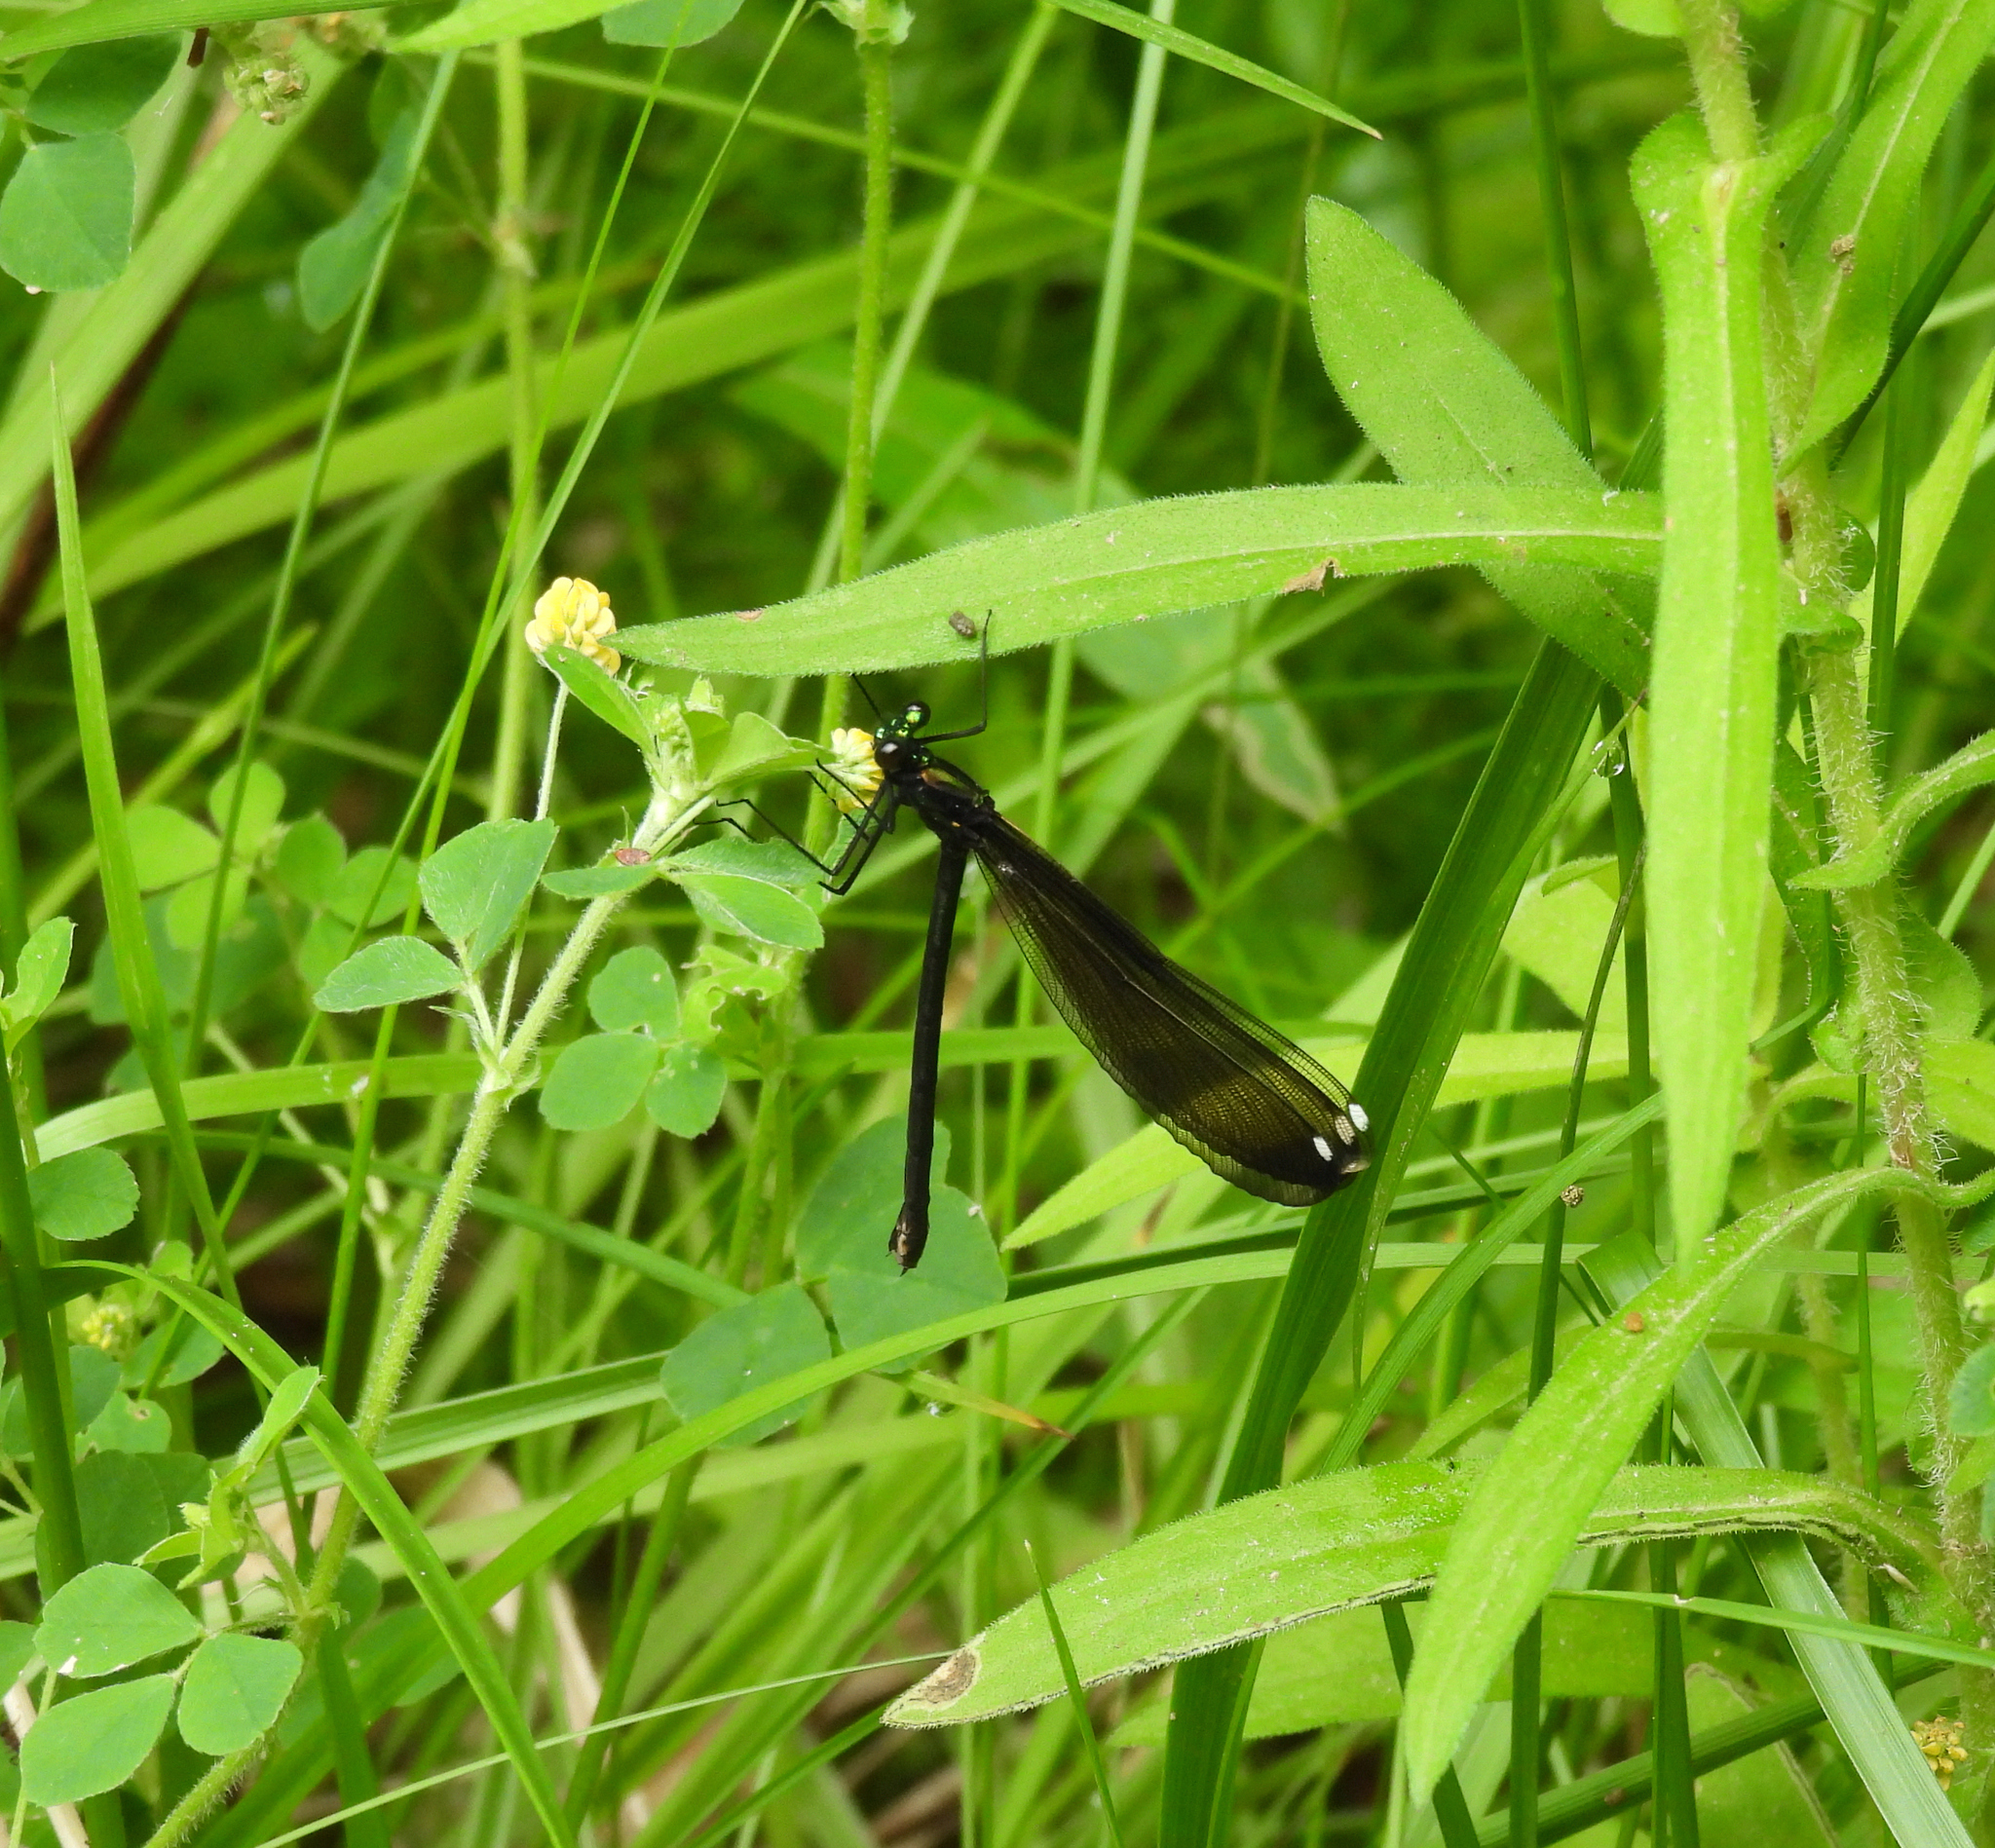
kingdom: Animalia
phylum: Arthropoda
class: Insecta
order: Odonata
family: Calopterygidae
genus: Calopteryx
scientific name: Calopteryx maculata
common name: Ebony jewelwing
